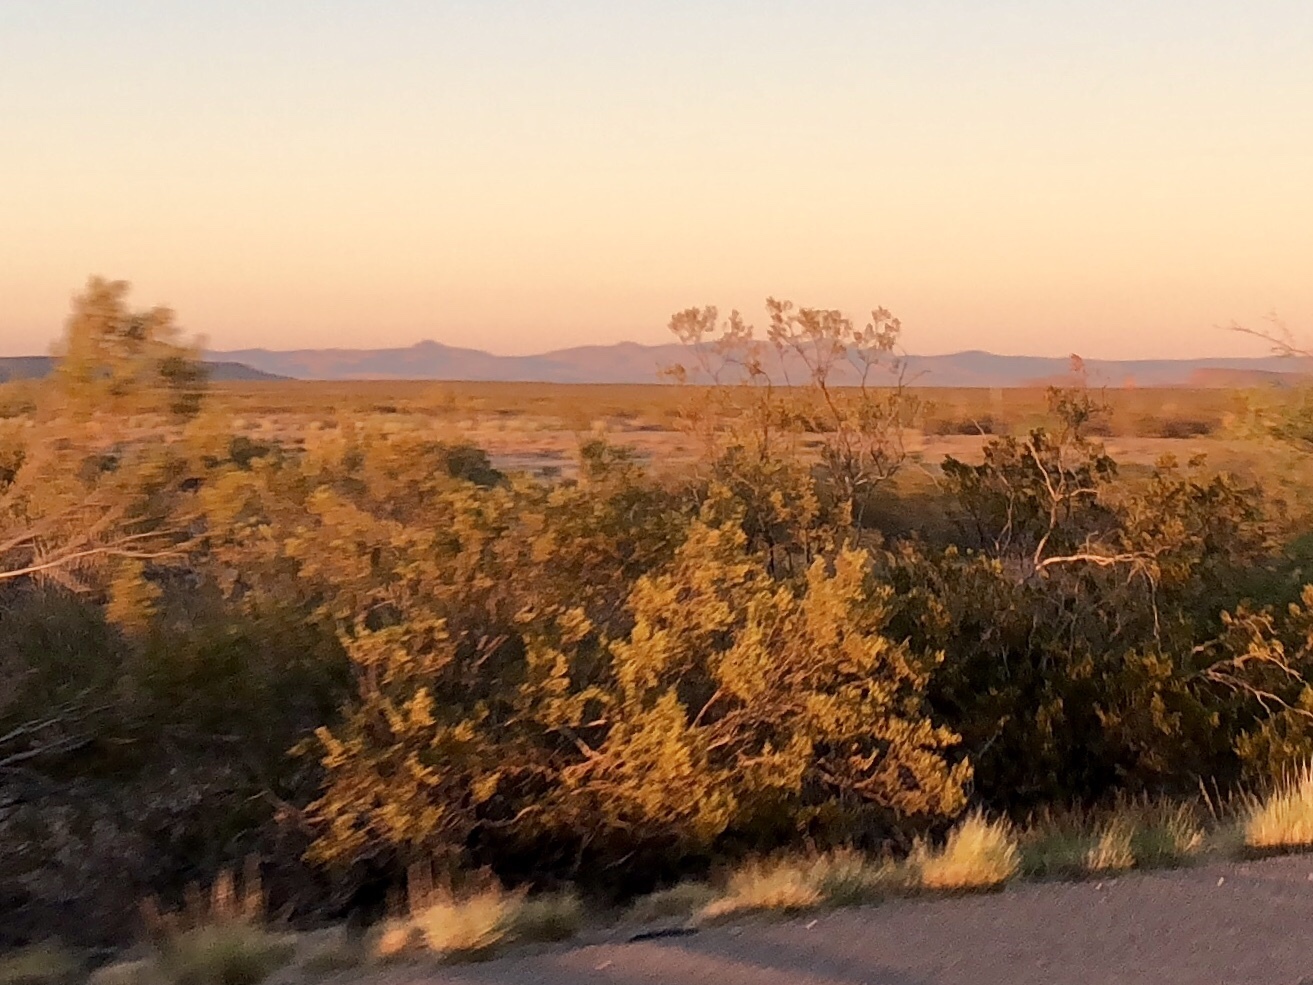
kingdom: Plantae
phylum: Tracheophyta
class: Magnoliopsida
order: Zygophyllales
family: Zygophyllaceae
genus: Larrea
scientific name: Larrea tridentata
